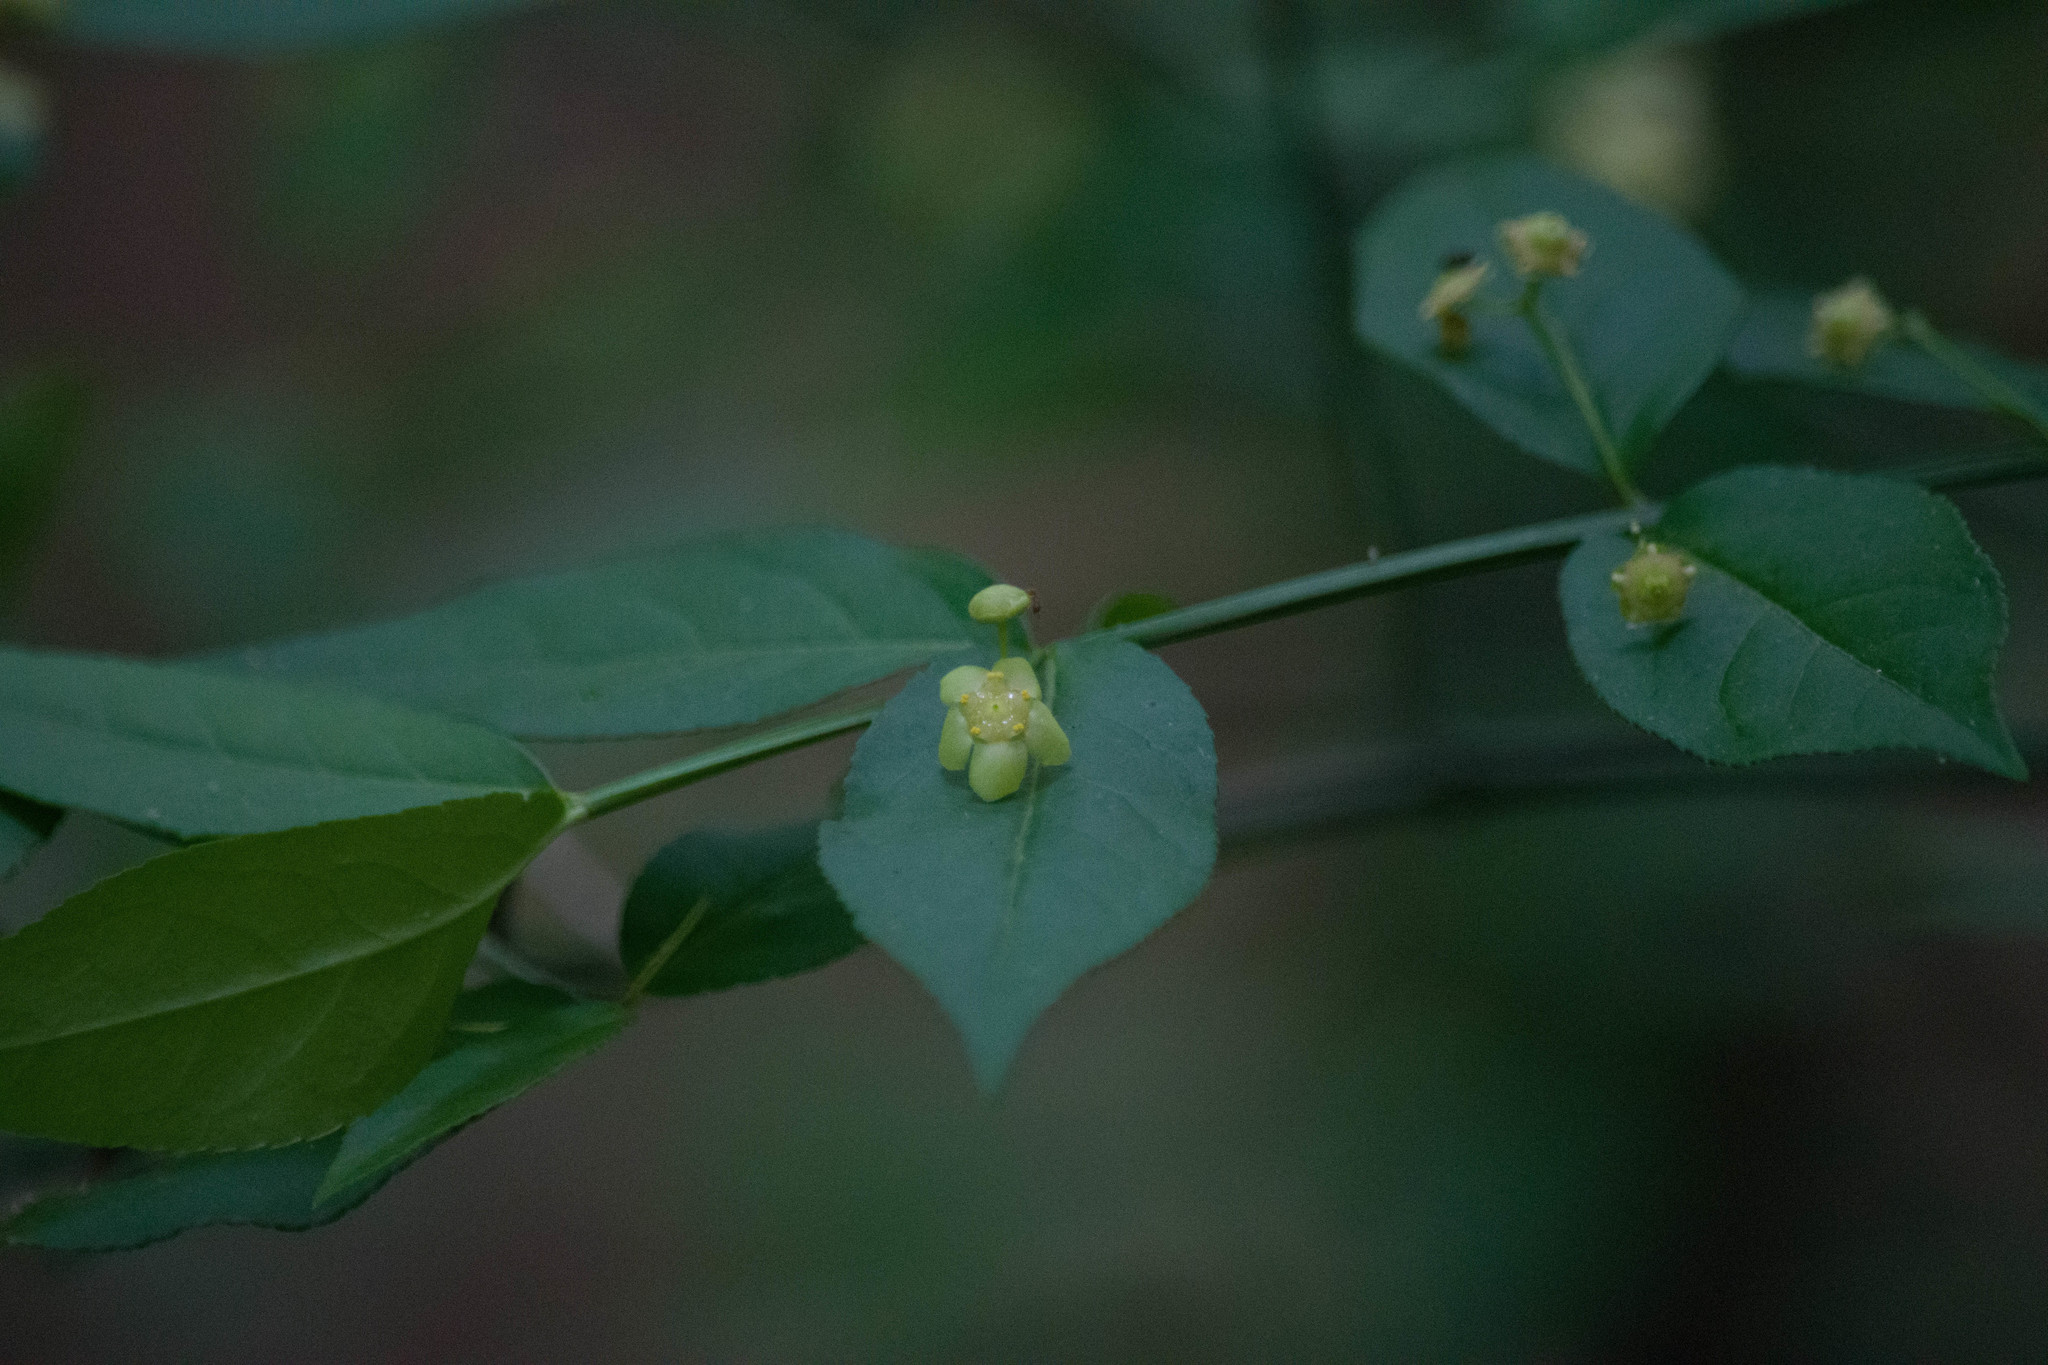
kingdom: Plantae
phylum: Tracheophyta
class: Magnoliopsida
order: Celastrales
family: Celastraceae
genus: Euonymus
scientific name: Euonymus americanus
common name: Bursting-heart
